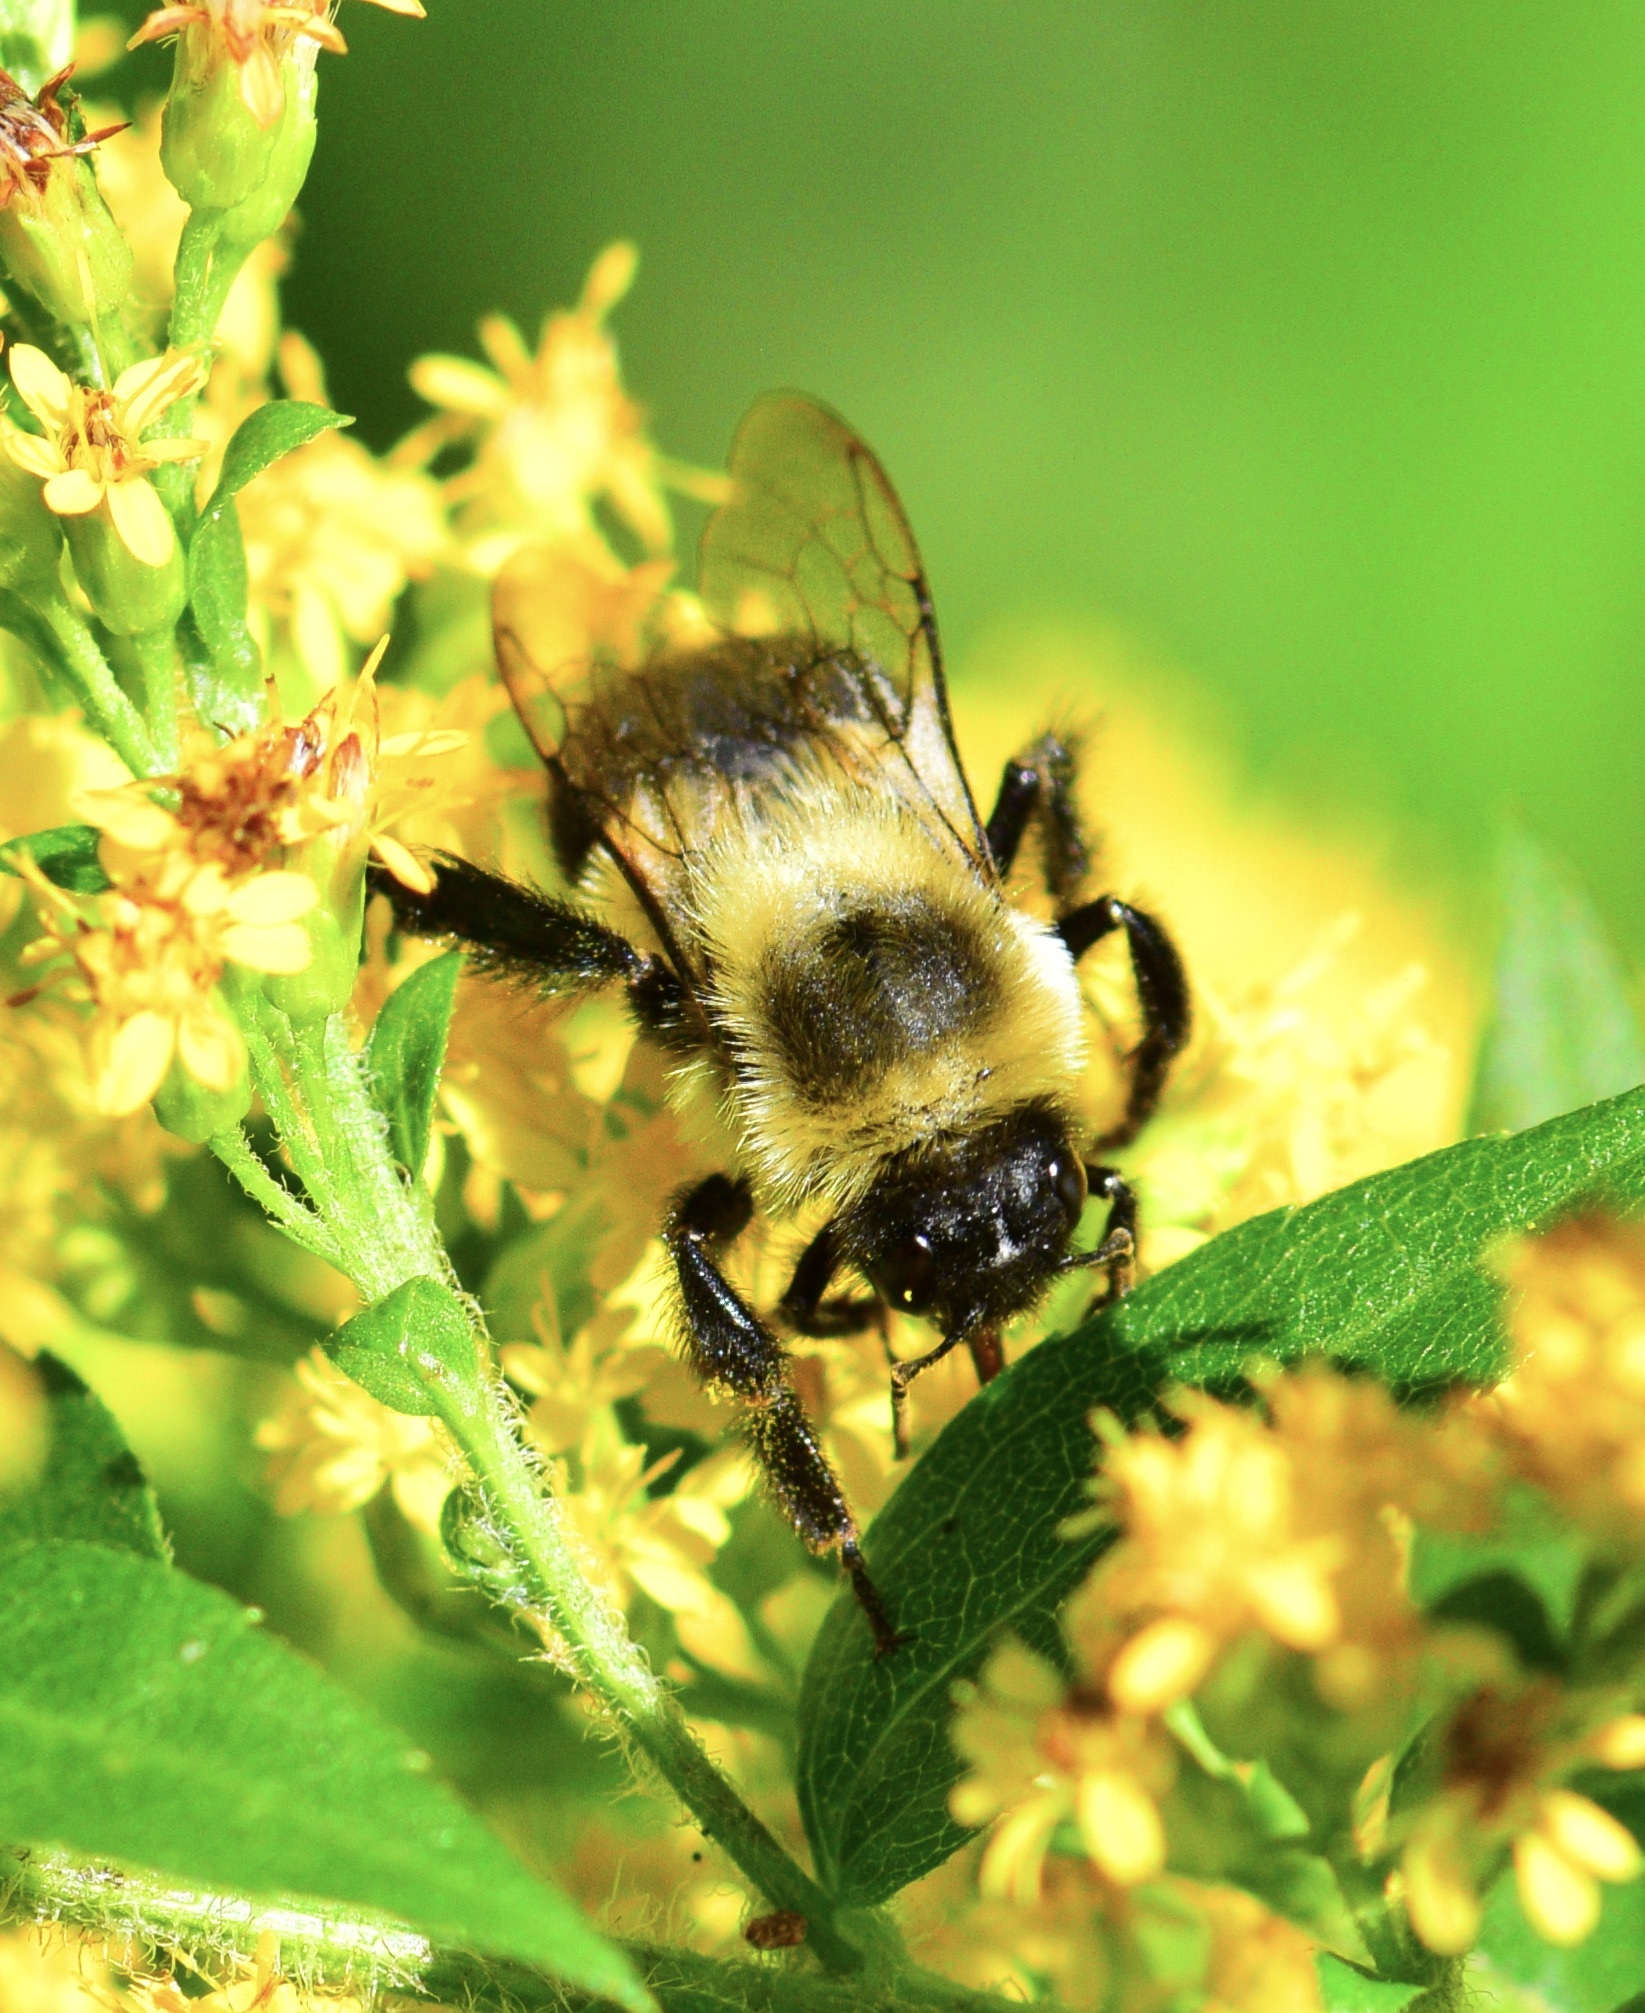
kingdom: Animalia
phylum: Arthropoda
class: Insecta
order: Hymenoptera
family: Apidae
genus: Bombus
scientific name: Bombus impatiens
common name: Common eastern bumble bee
